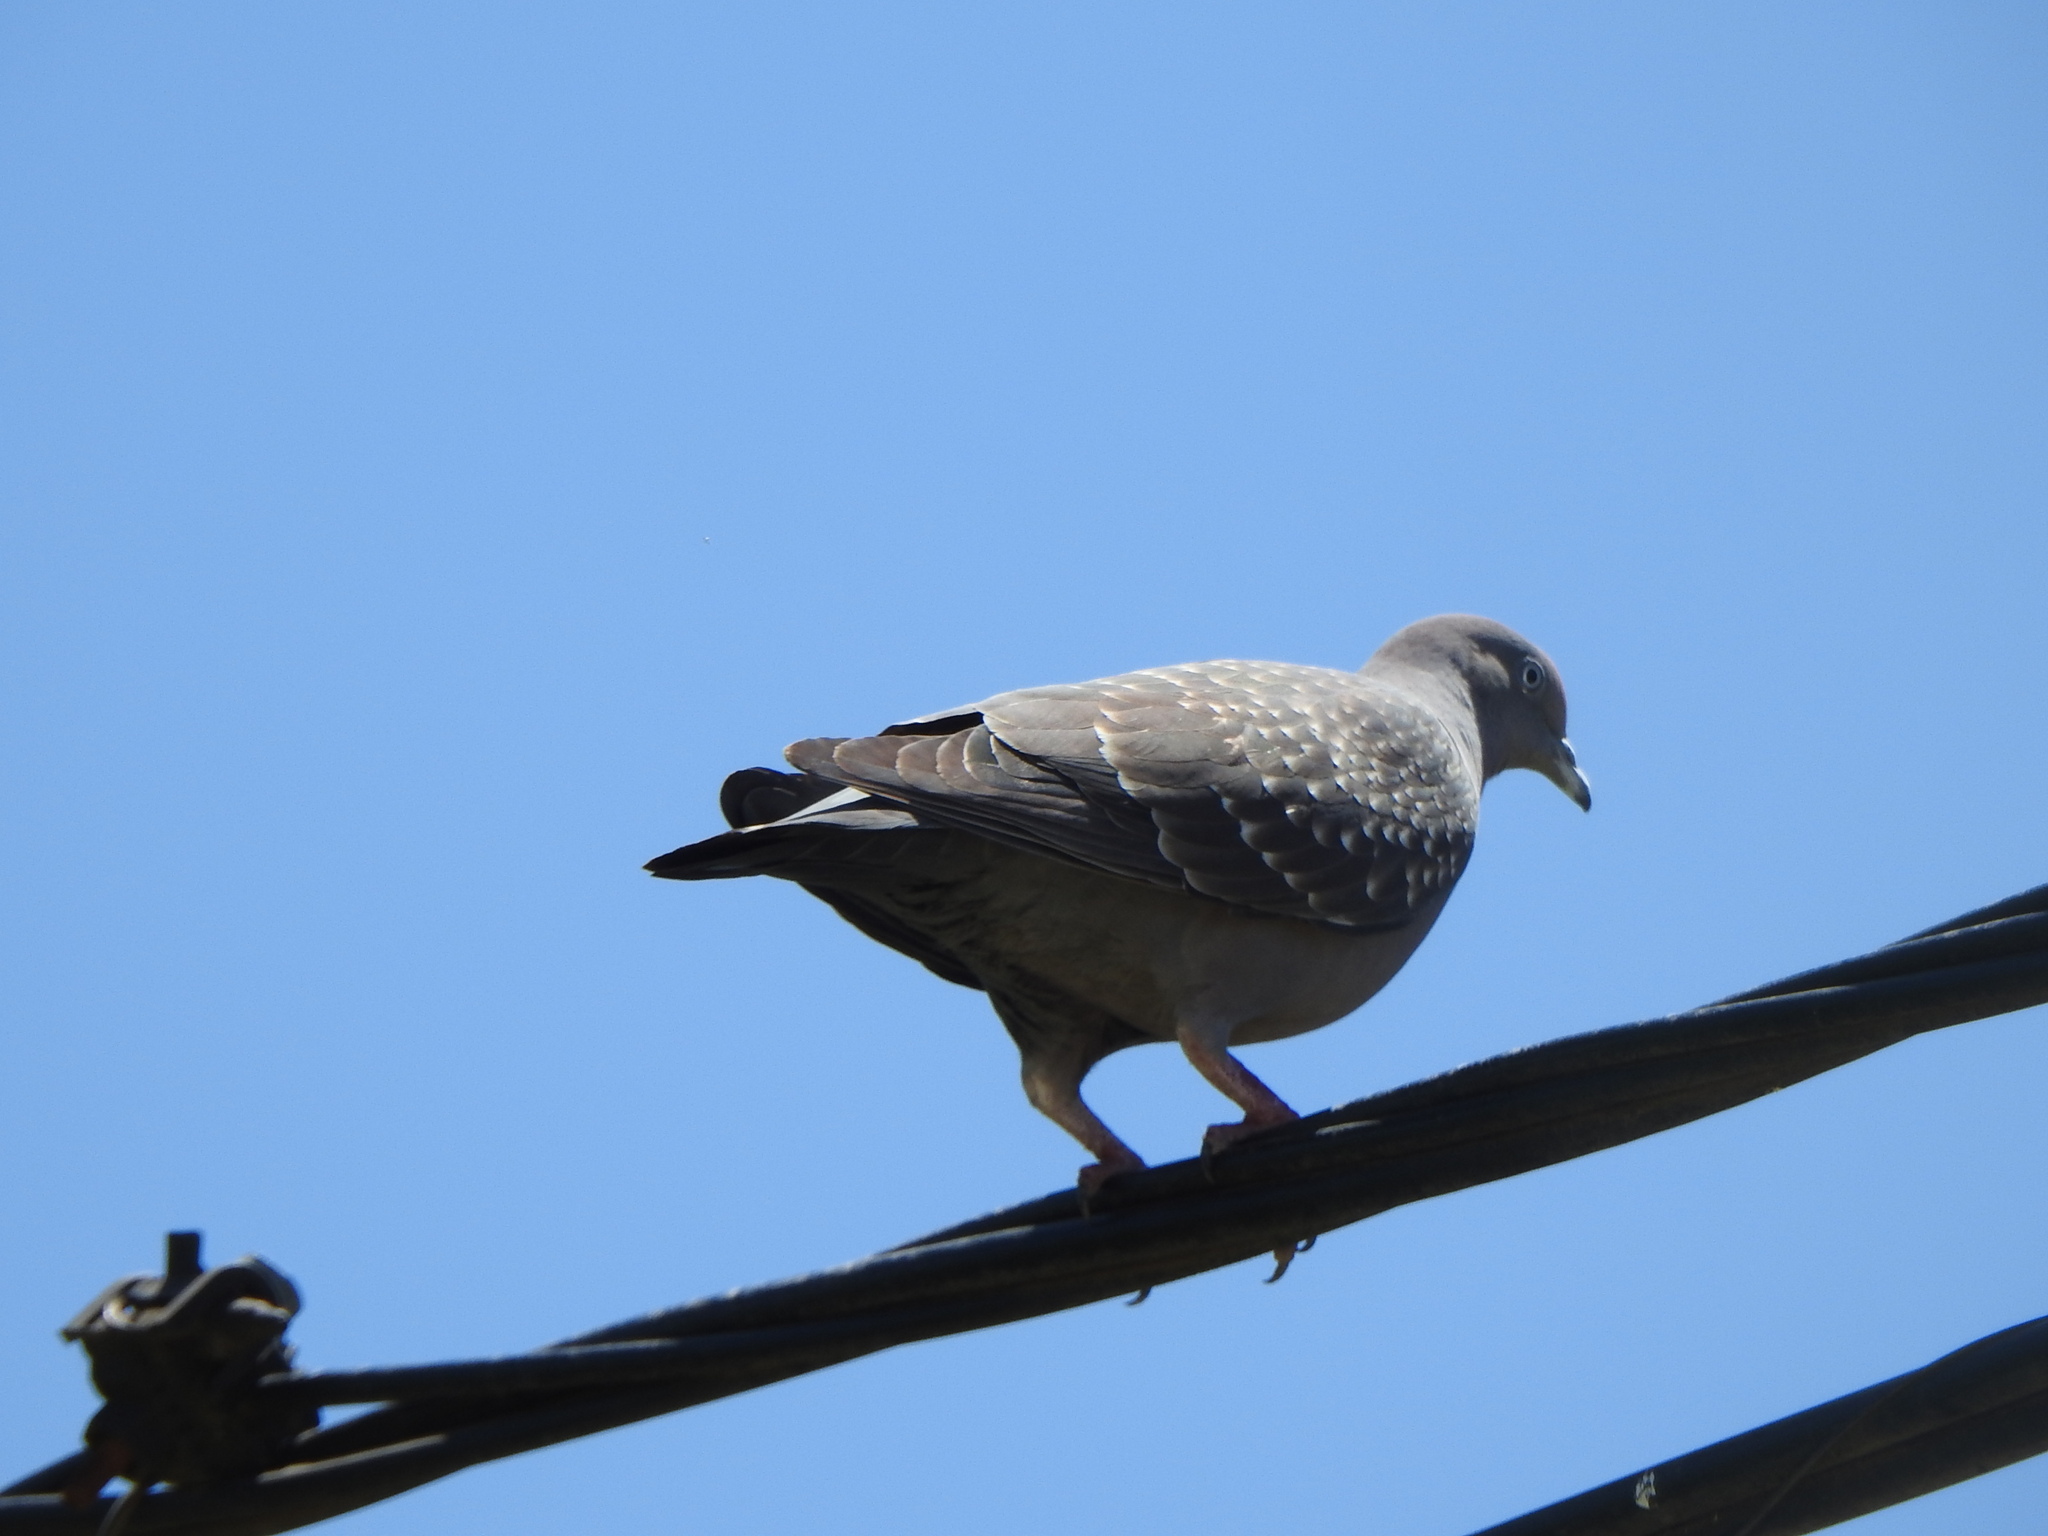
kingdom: Animalia
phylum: Chordata
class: Aves
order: Columbiformes
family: Columbidae
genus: Patagioenas
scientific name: Patagioenas maculosa
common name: Spot-winged pigeon
